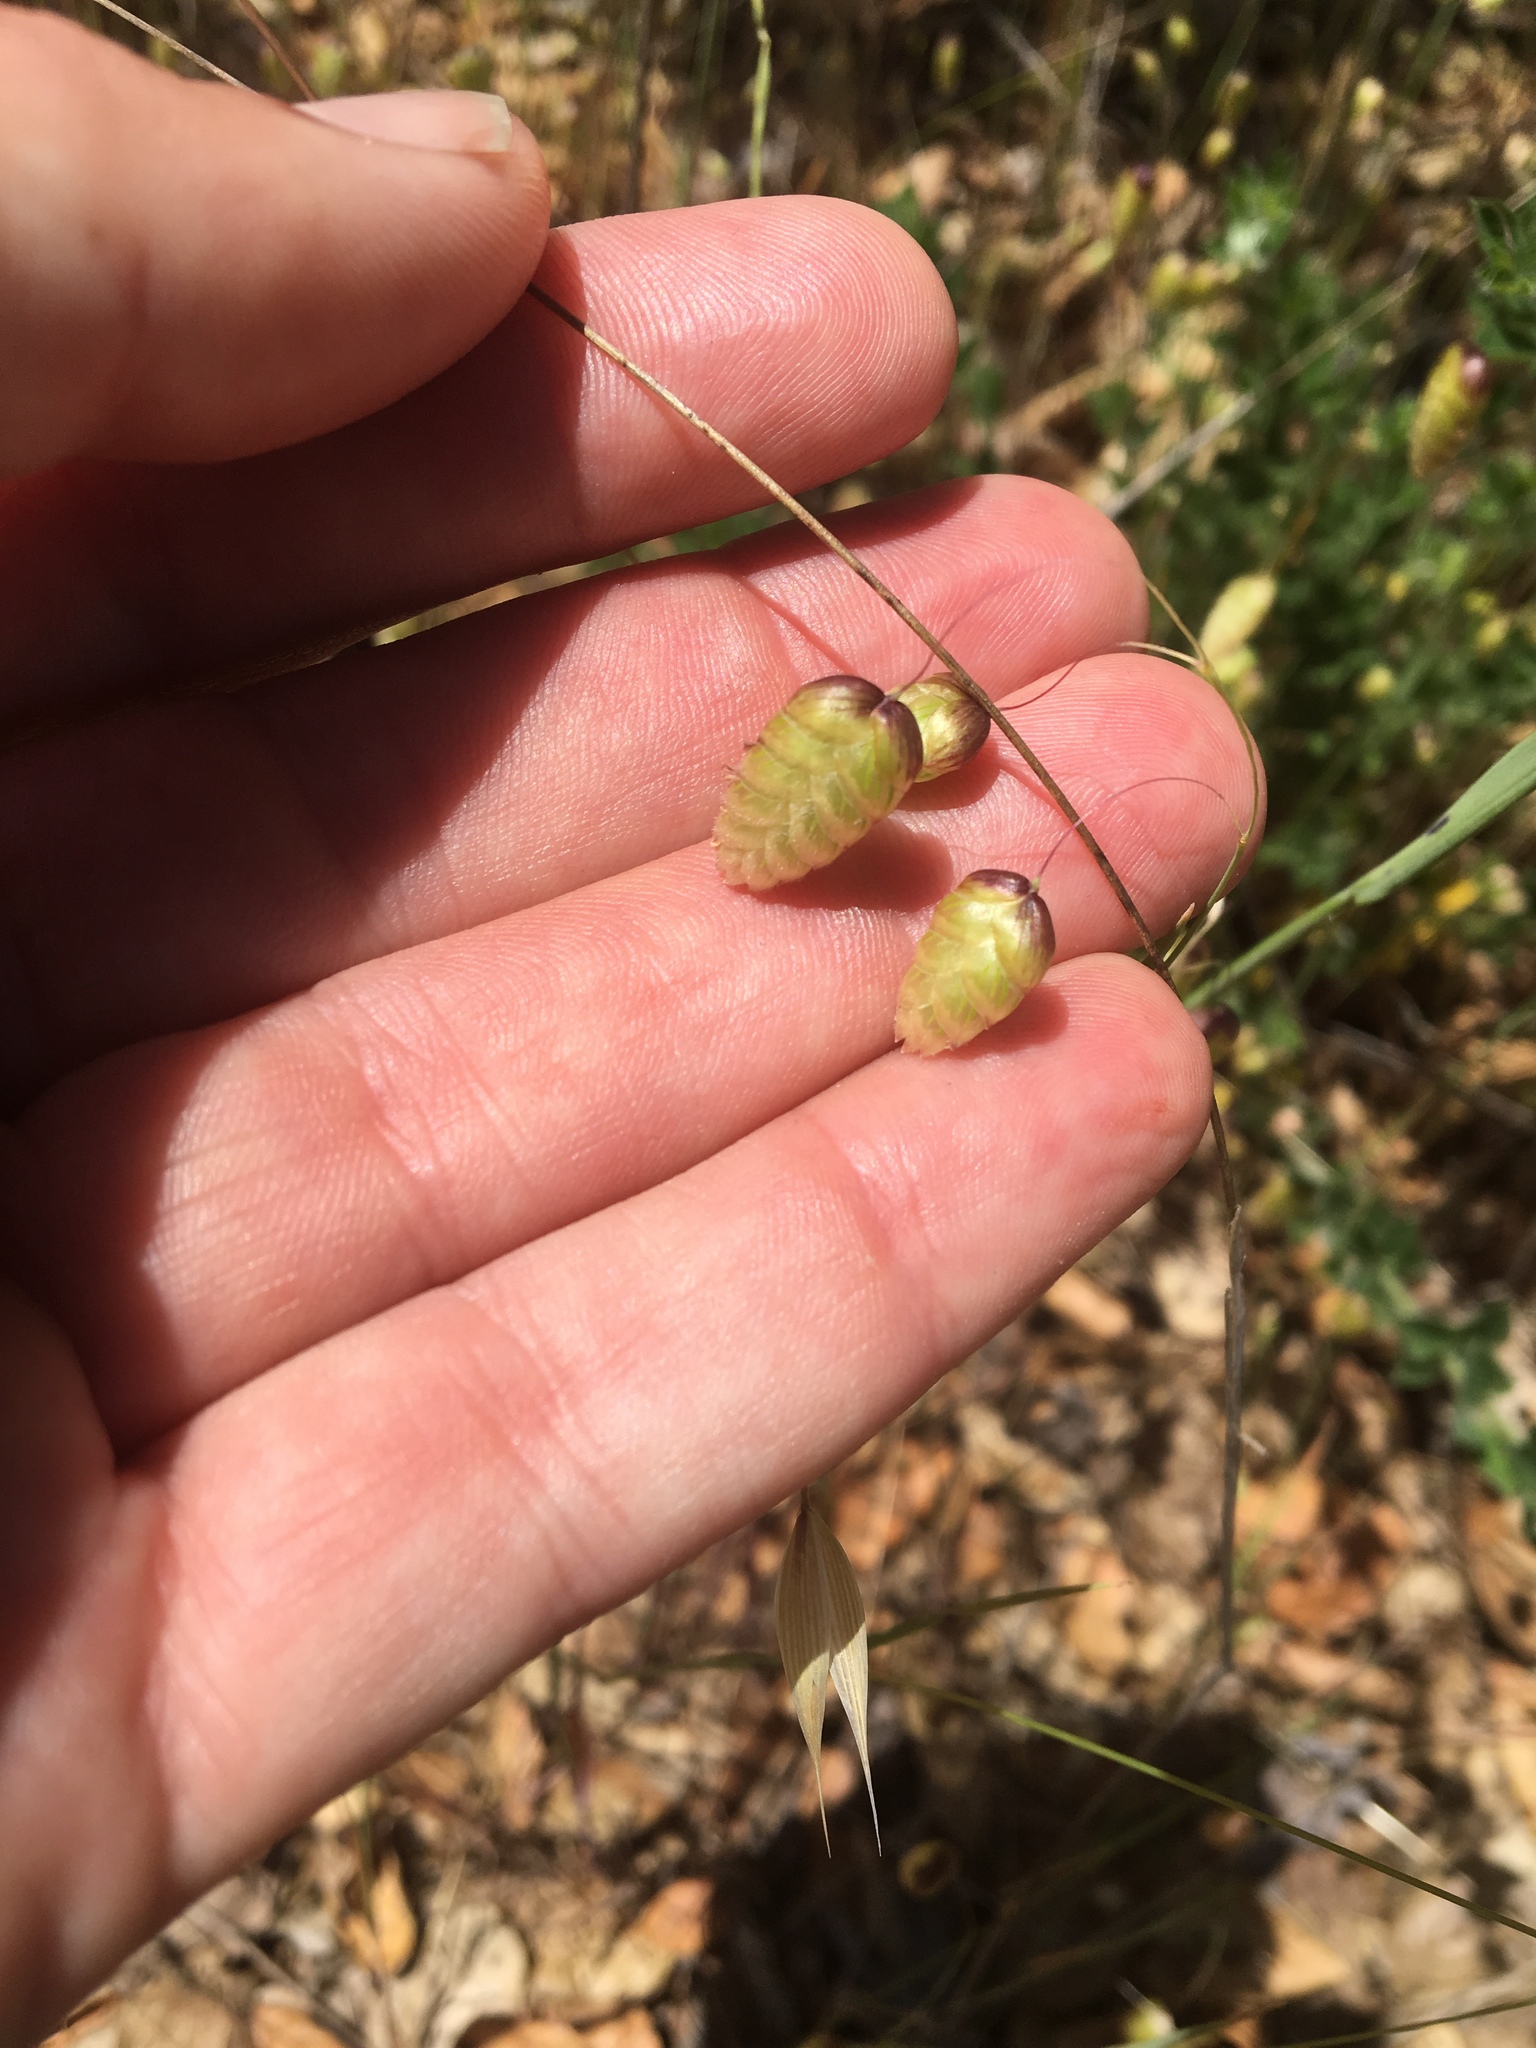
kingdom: Plantae
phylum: Tracheophyta
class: Liliopsida
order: Poales
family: Poaceae
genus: Briza
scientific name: Briza maxima
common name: Big quakinggrass
